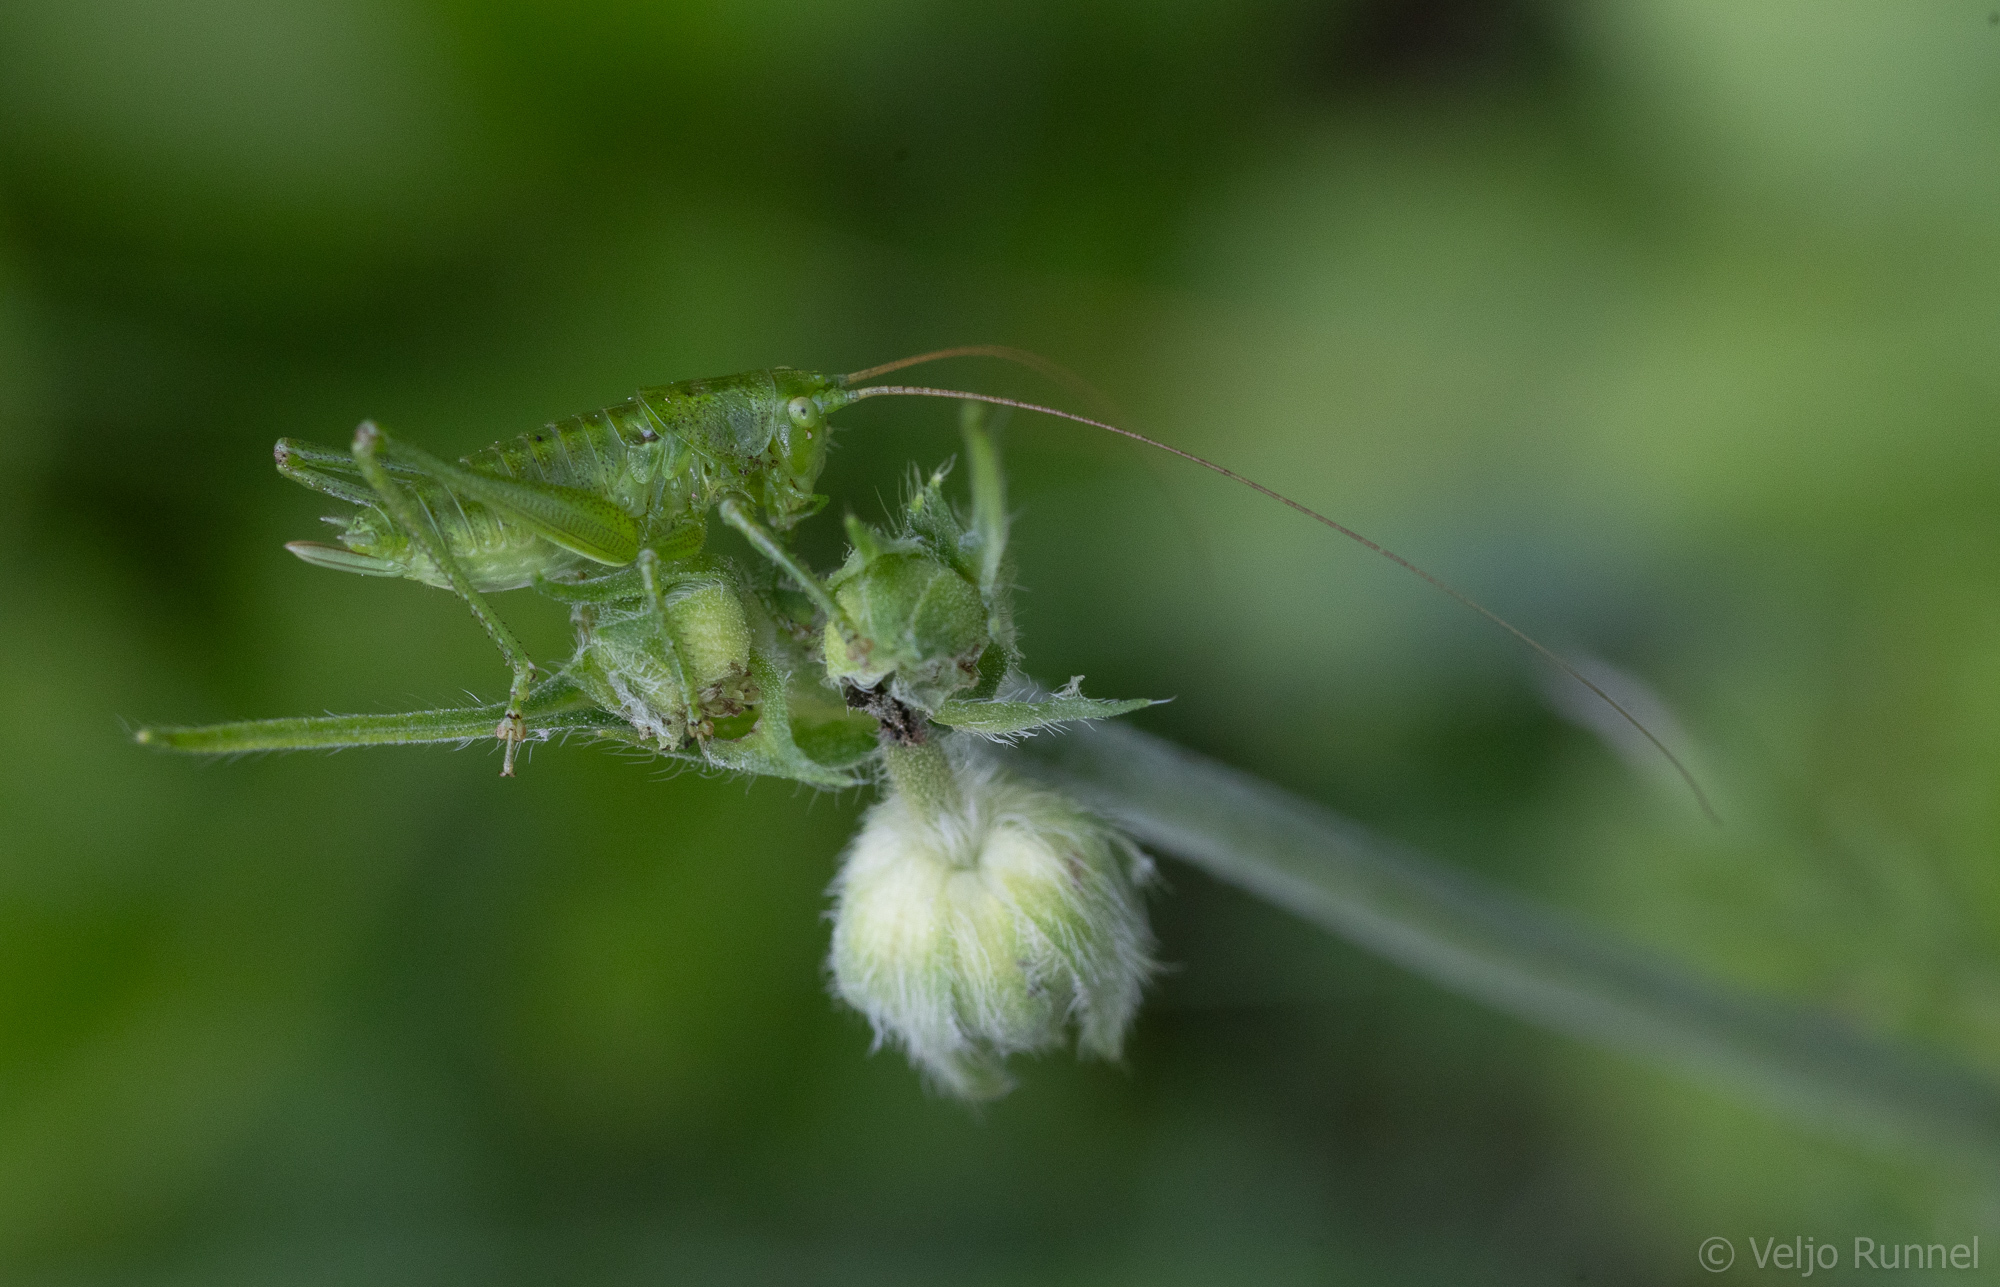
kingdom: Animalia
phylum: Arthropoda
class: Insecta
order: Orthoptera
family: Tettigoniidae
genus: Tettigonia
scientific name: Tettigonia cantans
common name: Upland green bush-cricket
